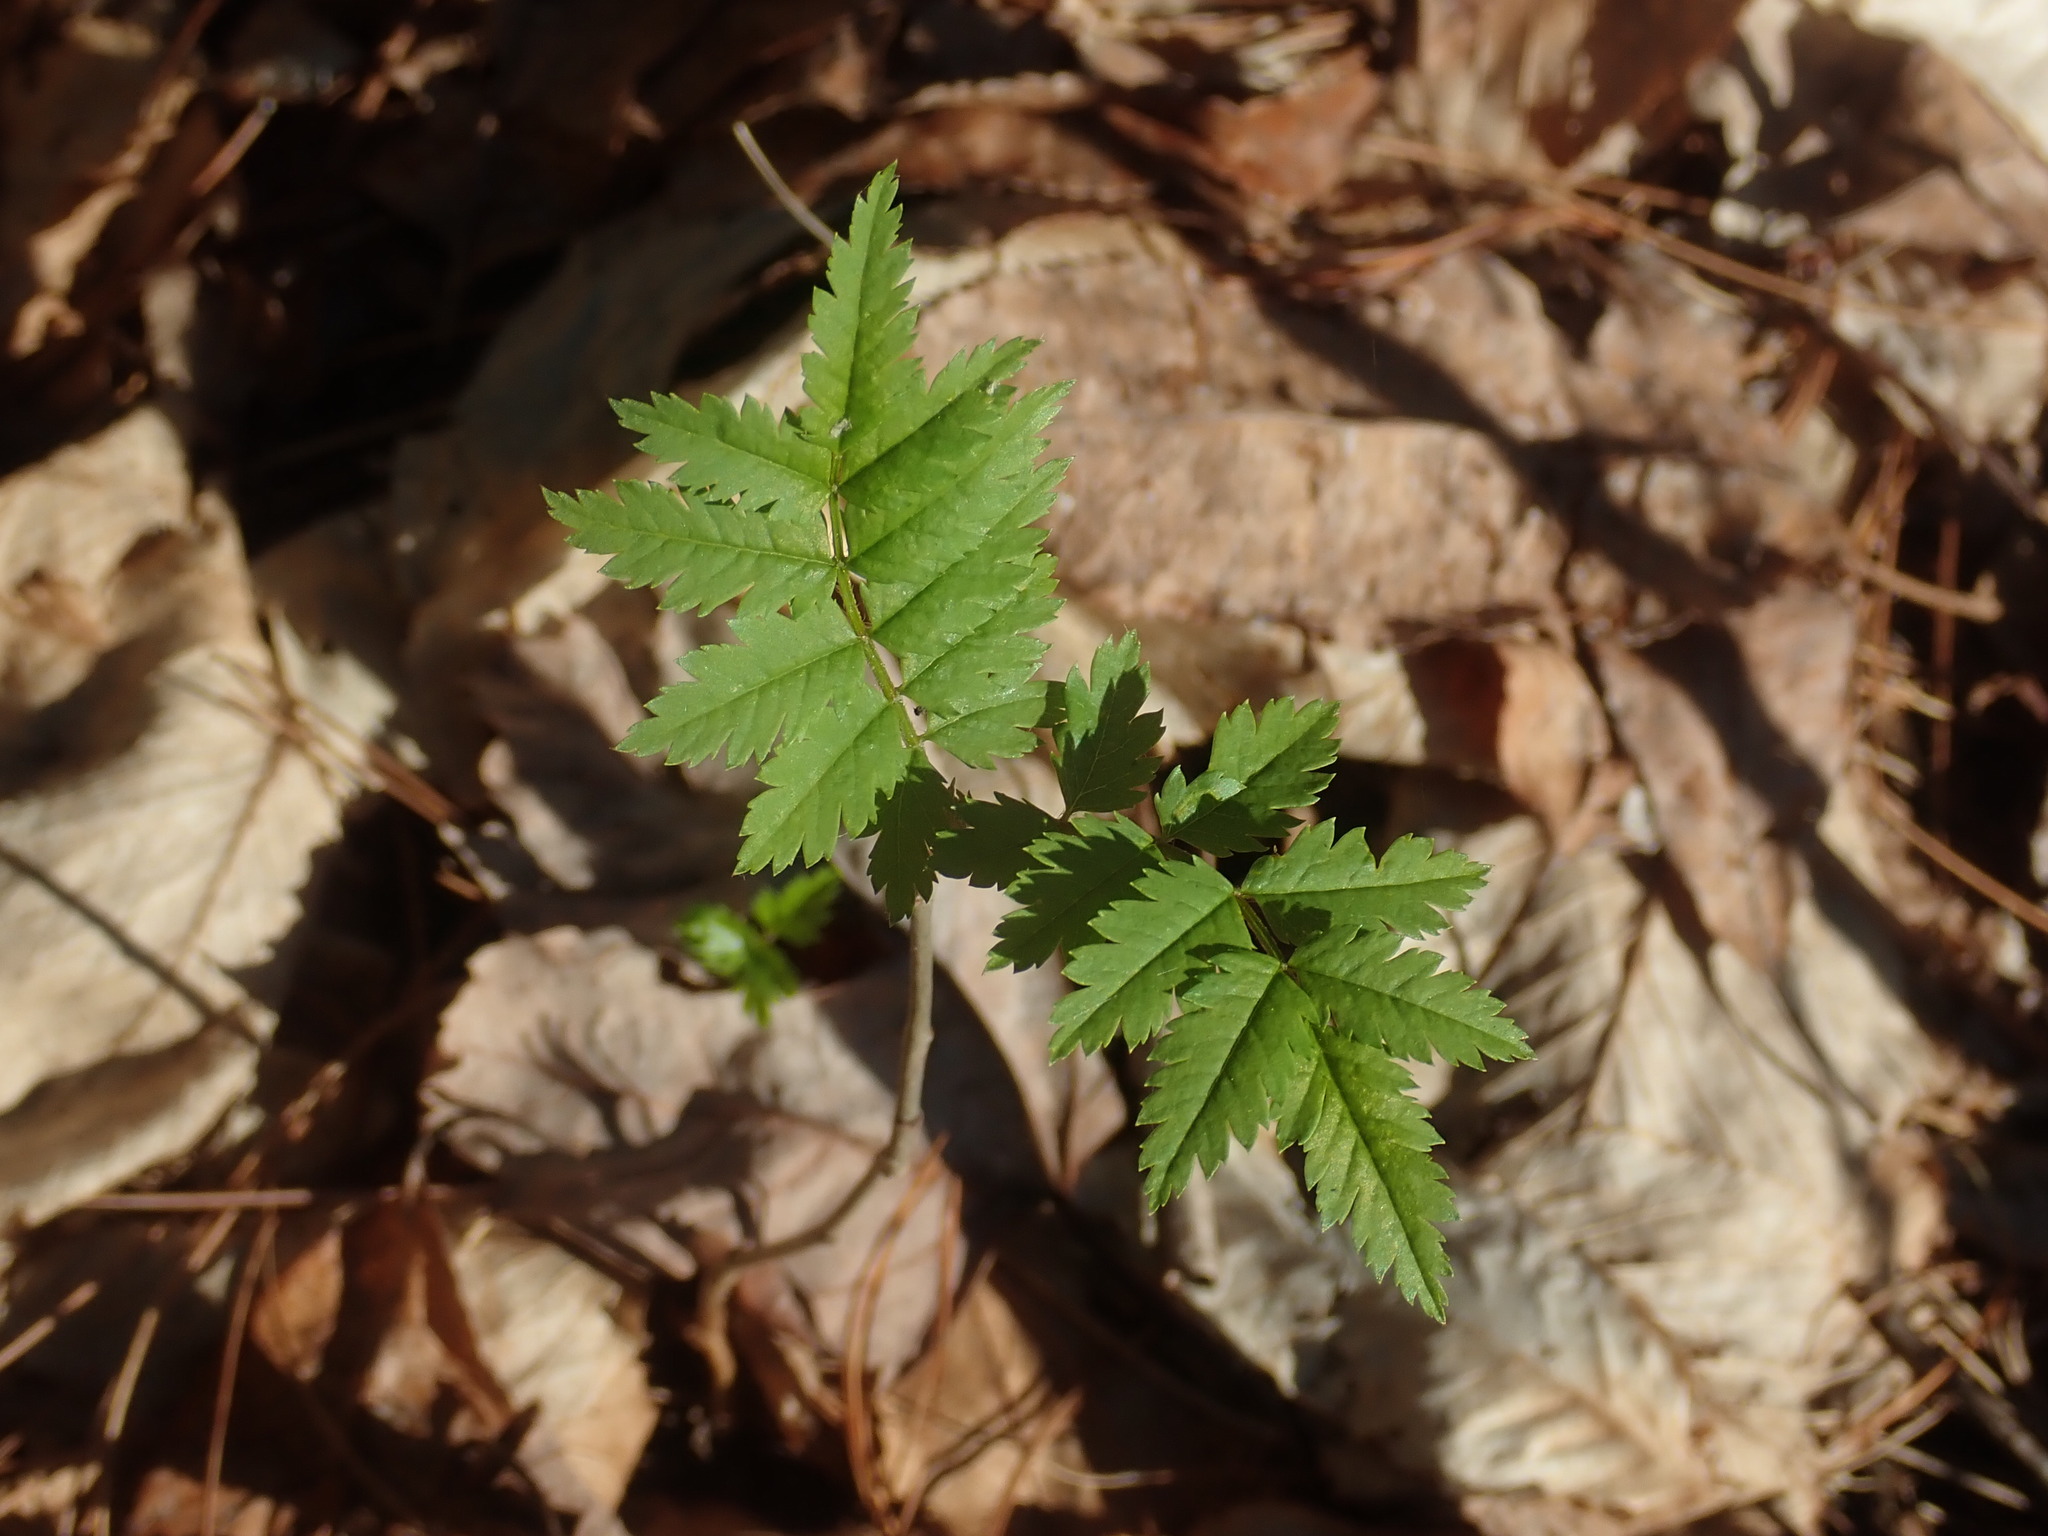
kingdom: Plantae
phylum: Tracheophyta
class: Magnoliopsida
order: Rosales
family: Rosaceae
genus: Sorbus
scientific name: Sorbus
